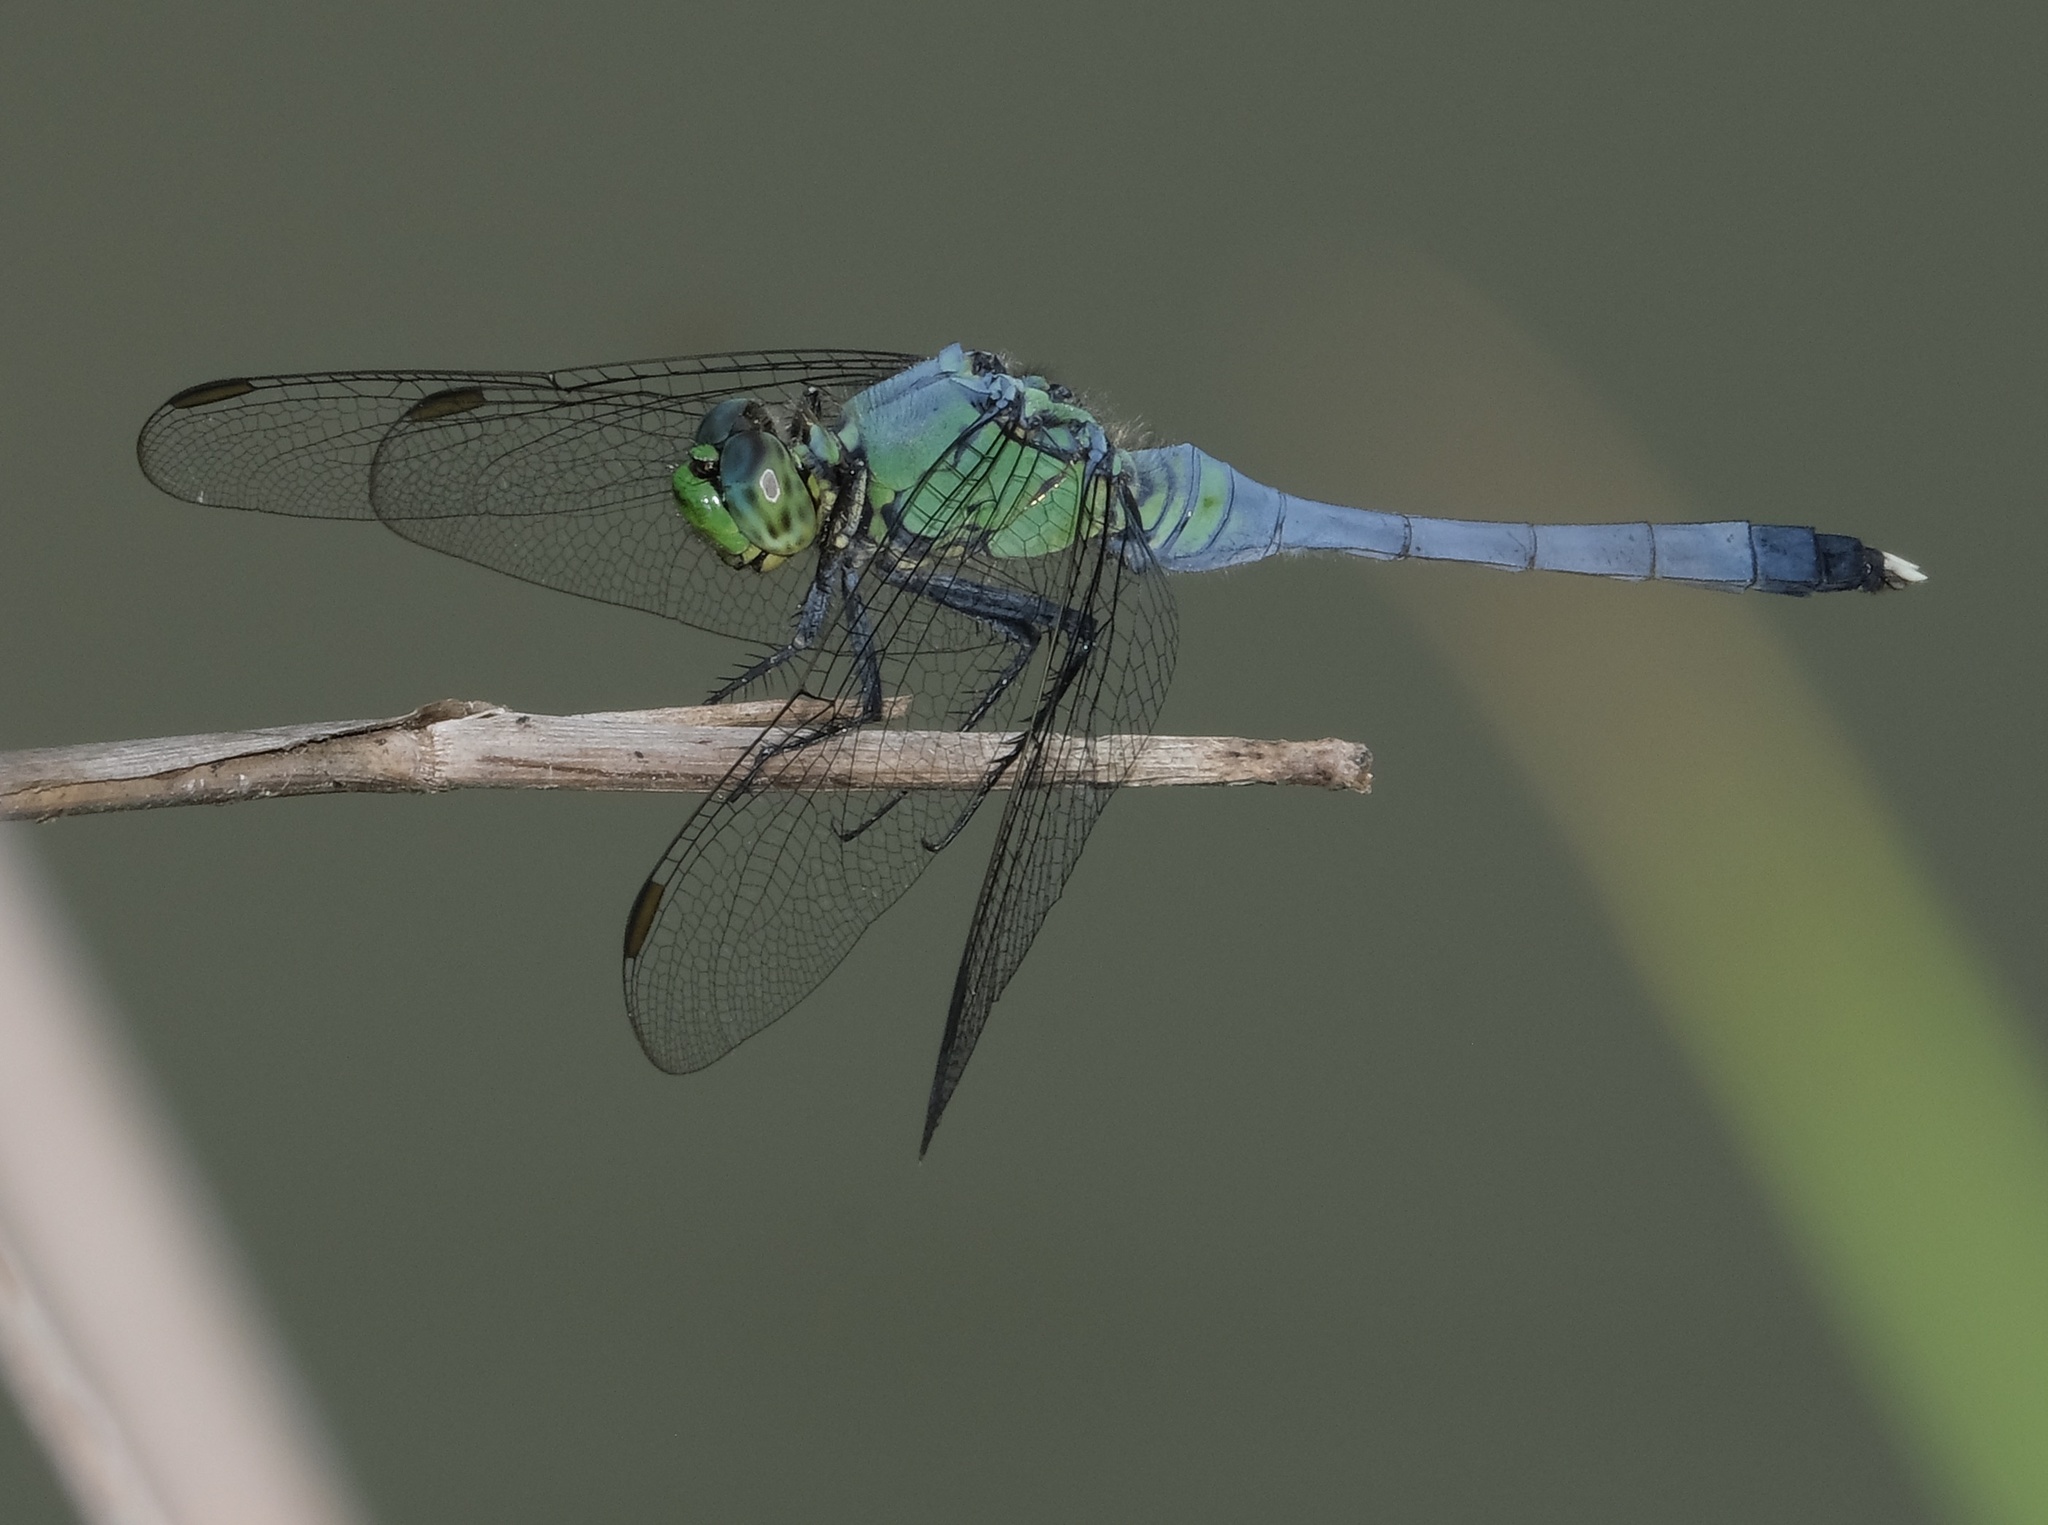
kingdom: Animalia
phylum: Arthropoda
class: Insecta
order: Odonata
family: Libellulidae
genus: Erythemis
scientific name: Erythemis simplicicollis
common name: Eastern pondhawk
